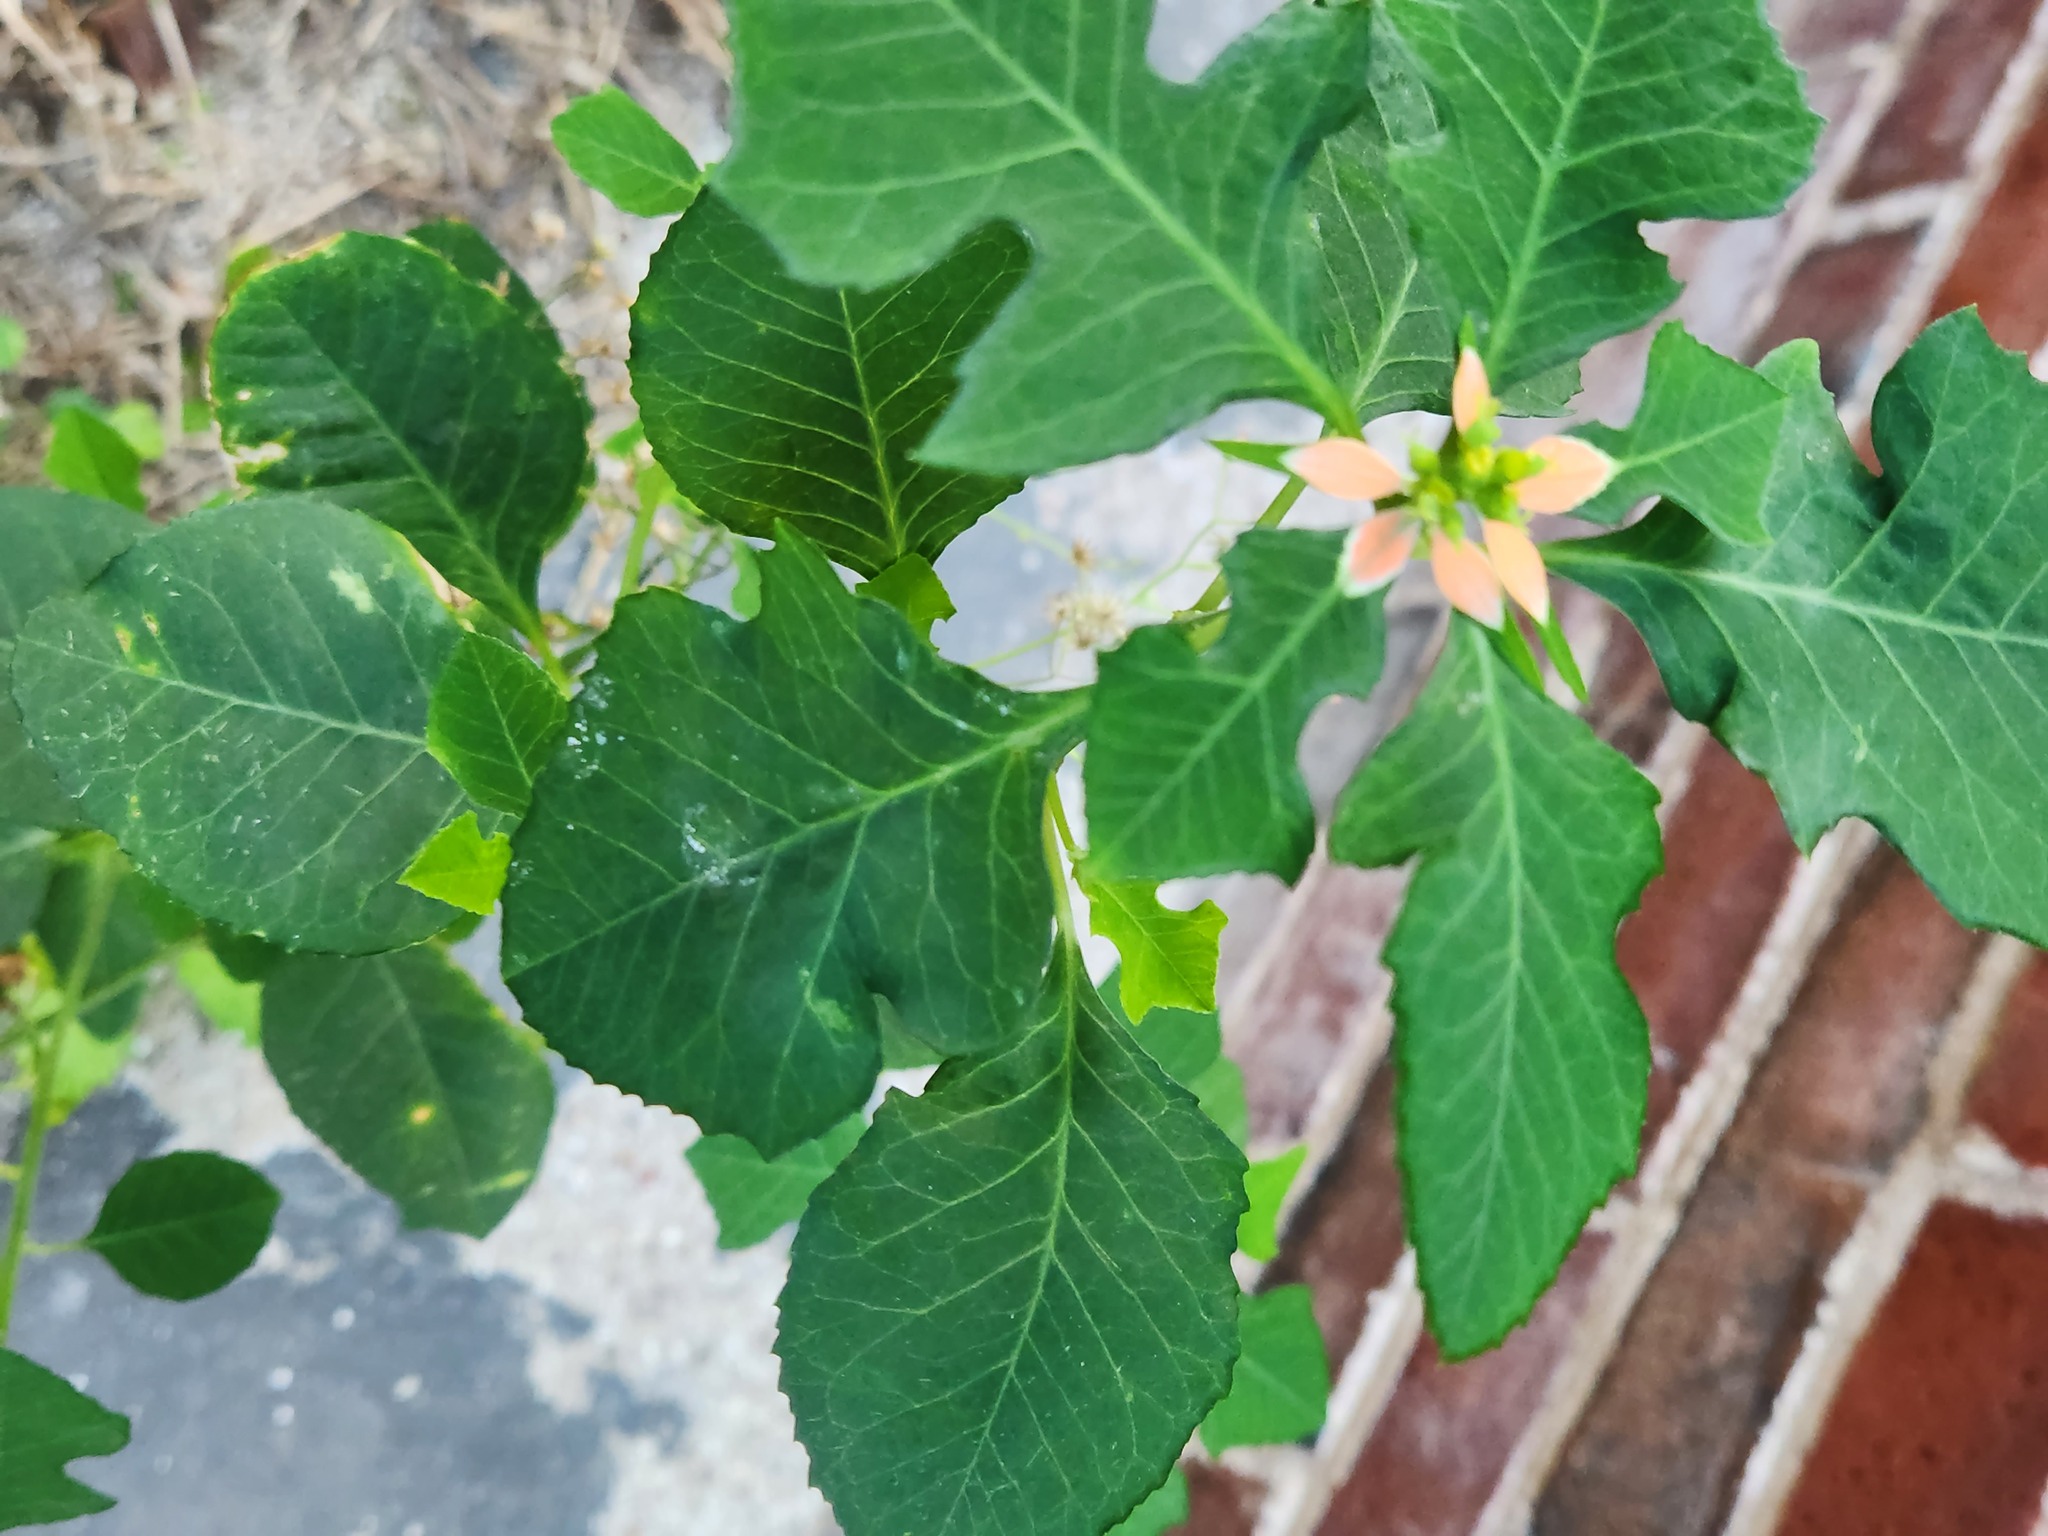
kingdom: Plantae
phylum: Tracheophyta
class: Magnoliopsida
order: Malpighiales
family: Euphorbiaceae
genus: Euphorbia
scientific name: Euphorbia heterophylla
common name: Mexican fireplant
